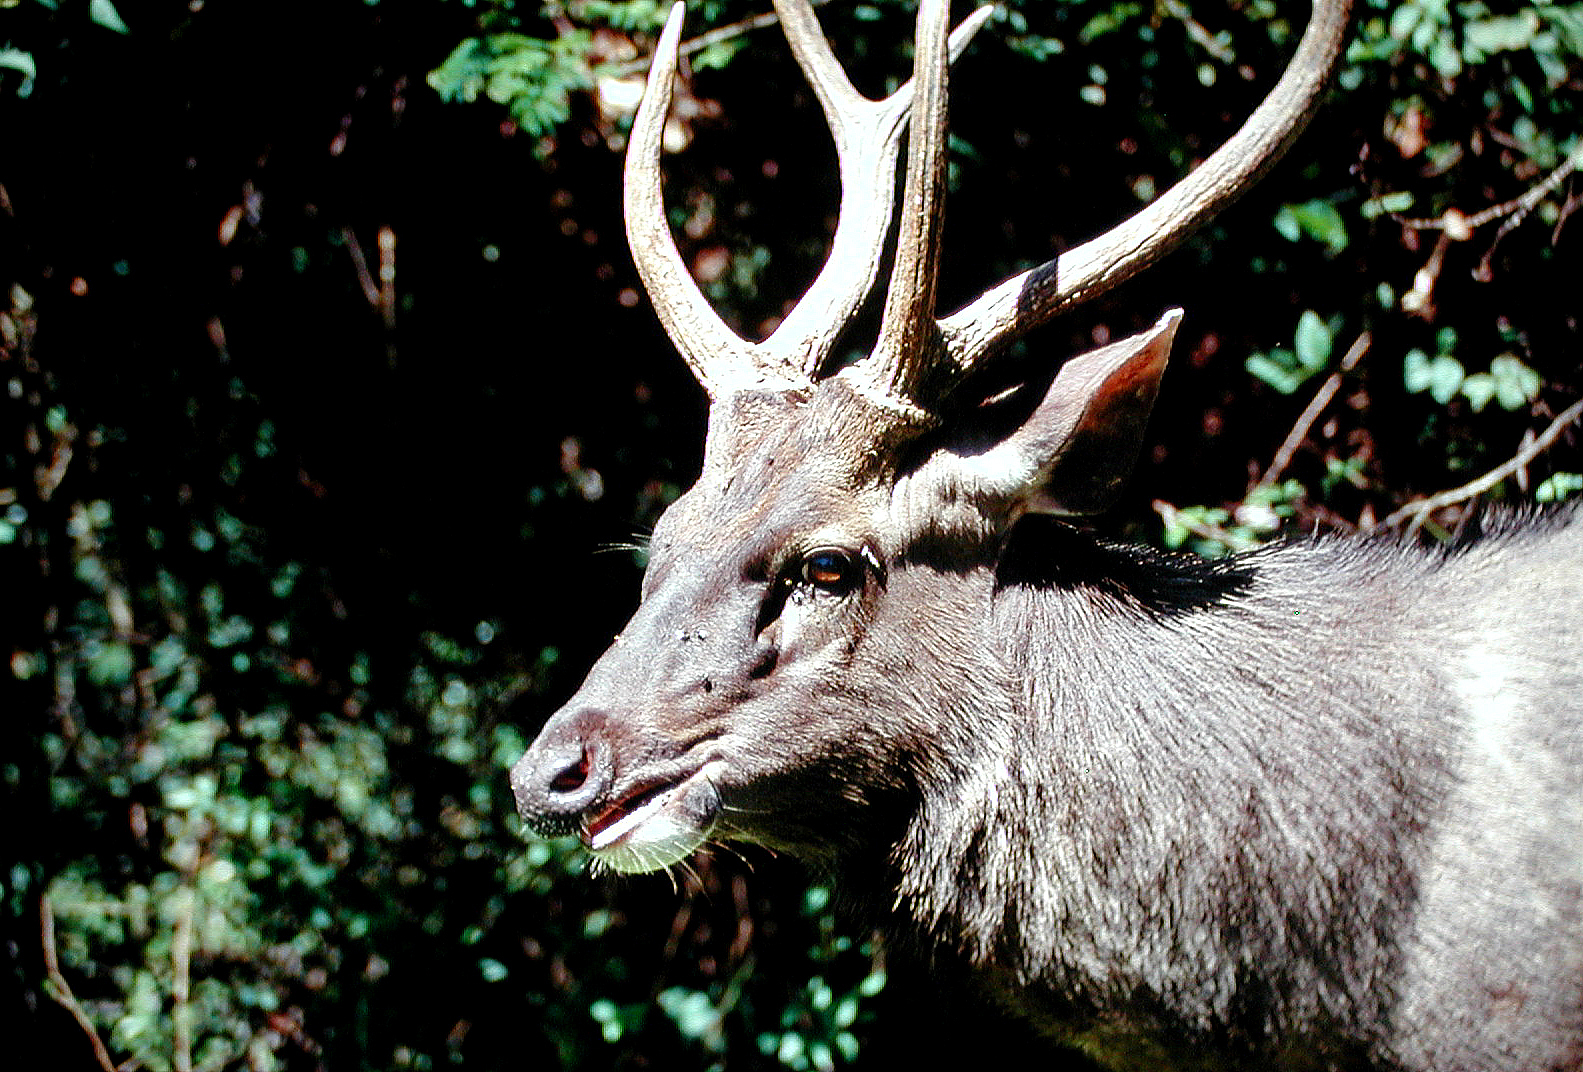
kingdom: Animalia
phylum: Chordata
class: Mammalia
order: Artiodactyla
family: Cervidae
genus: Rusa
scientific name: Rusa unicolor
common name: Sambar
